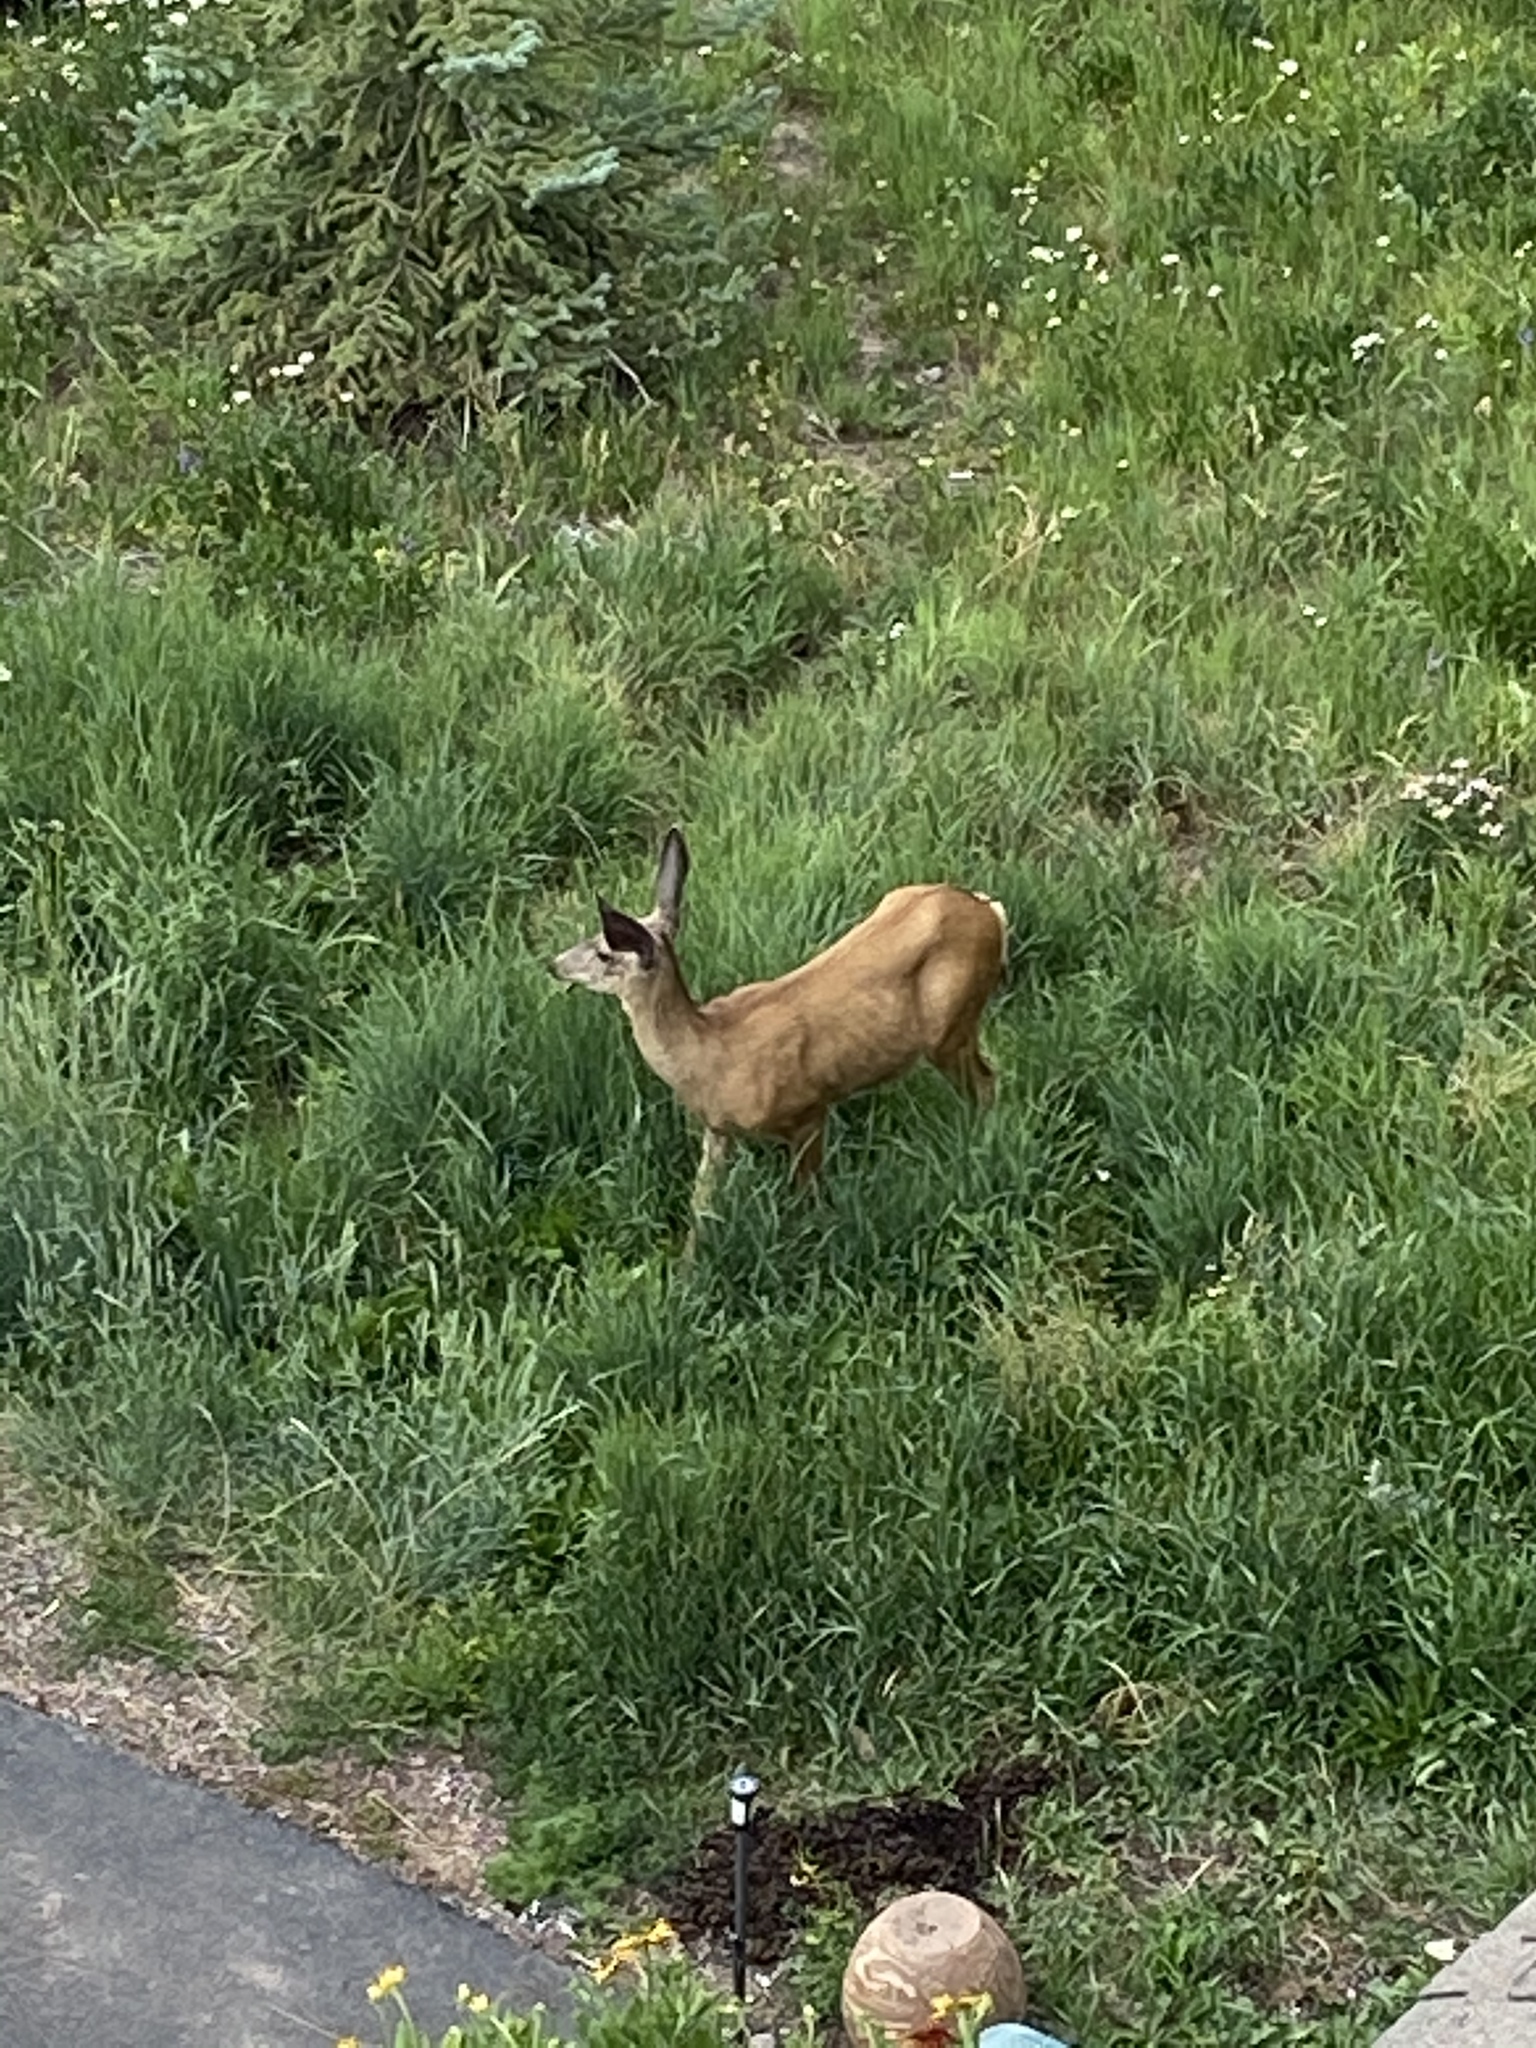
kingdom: Animalia
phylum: Chordata
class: Mammalia
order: Artiodactyla
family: Cervidae
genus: Odocoileus
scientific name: Odocoileus hemionus
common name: Mule deer
